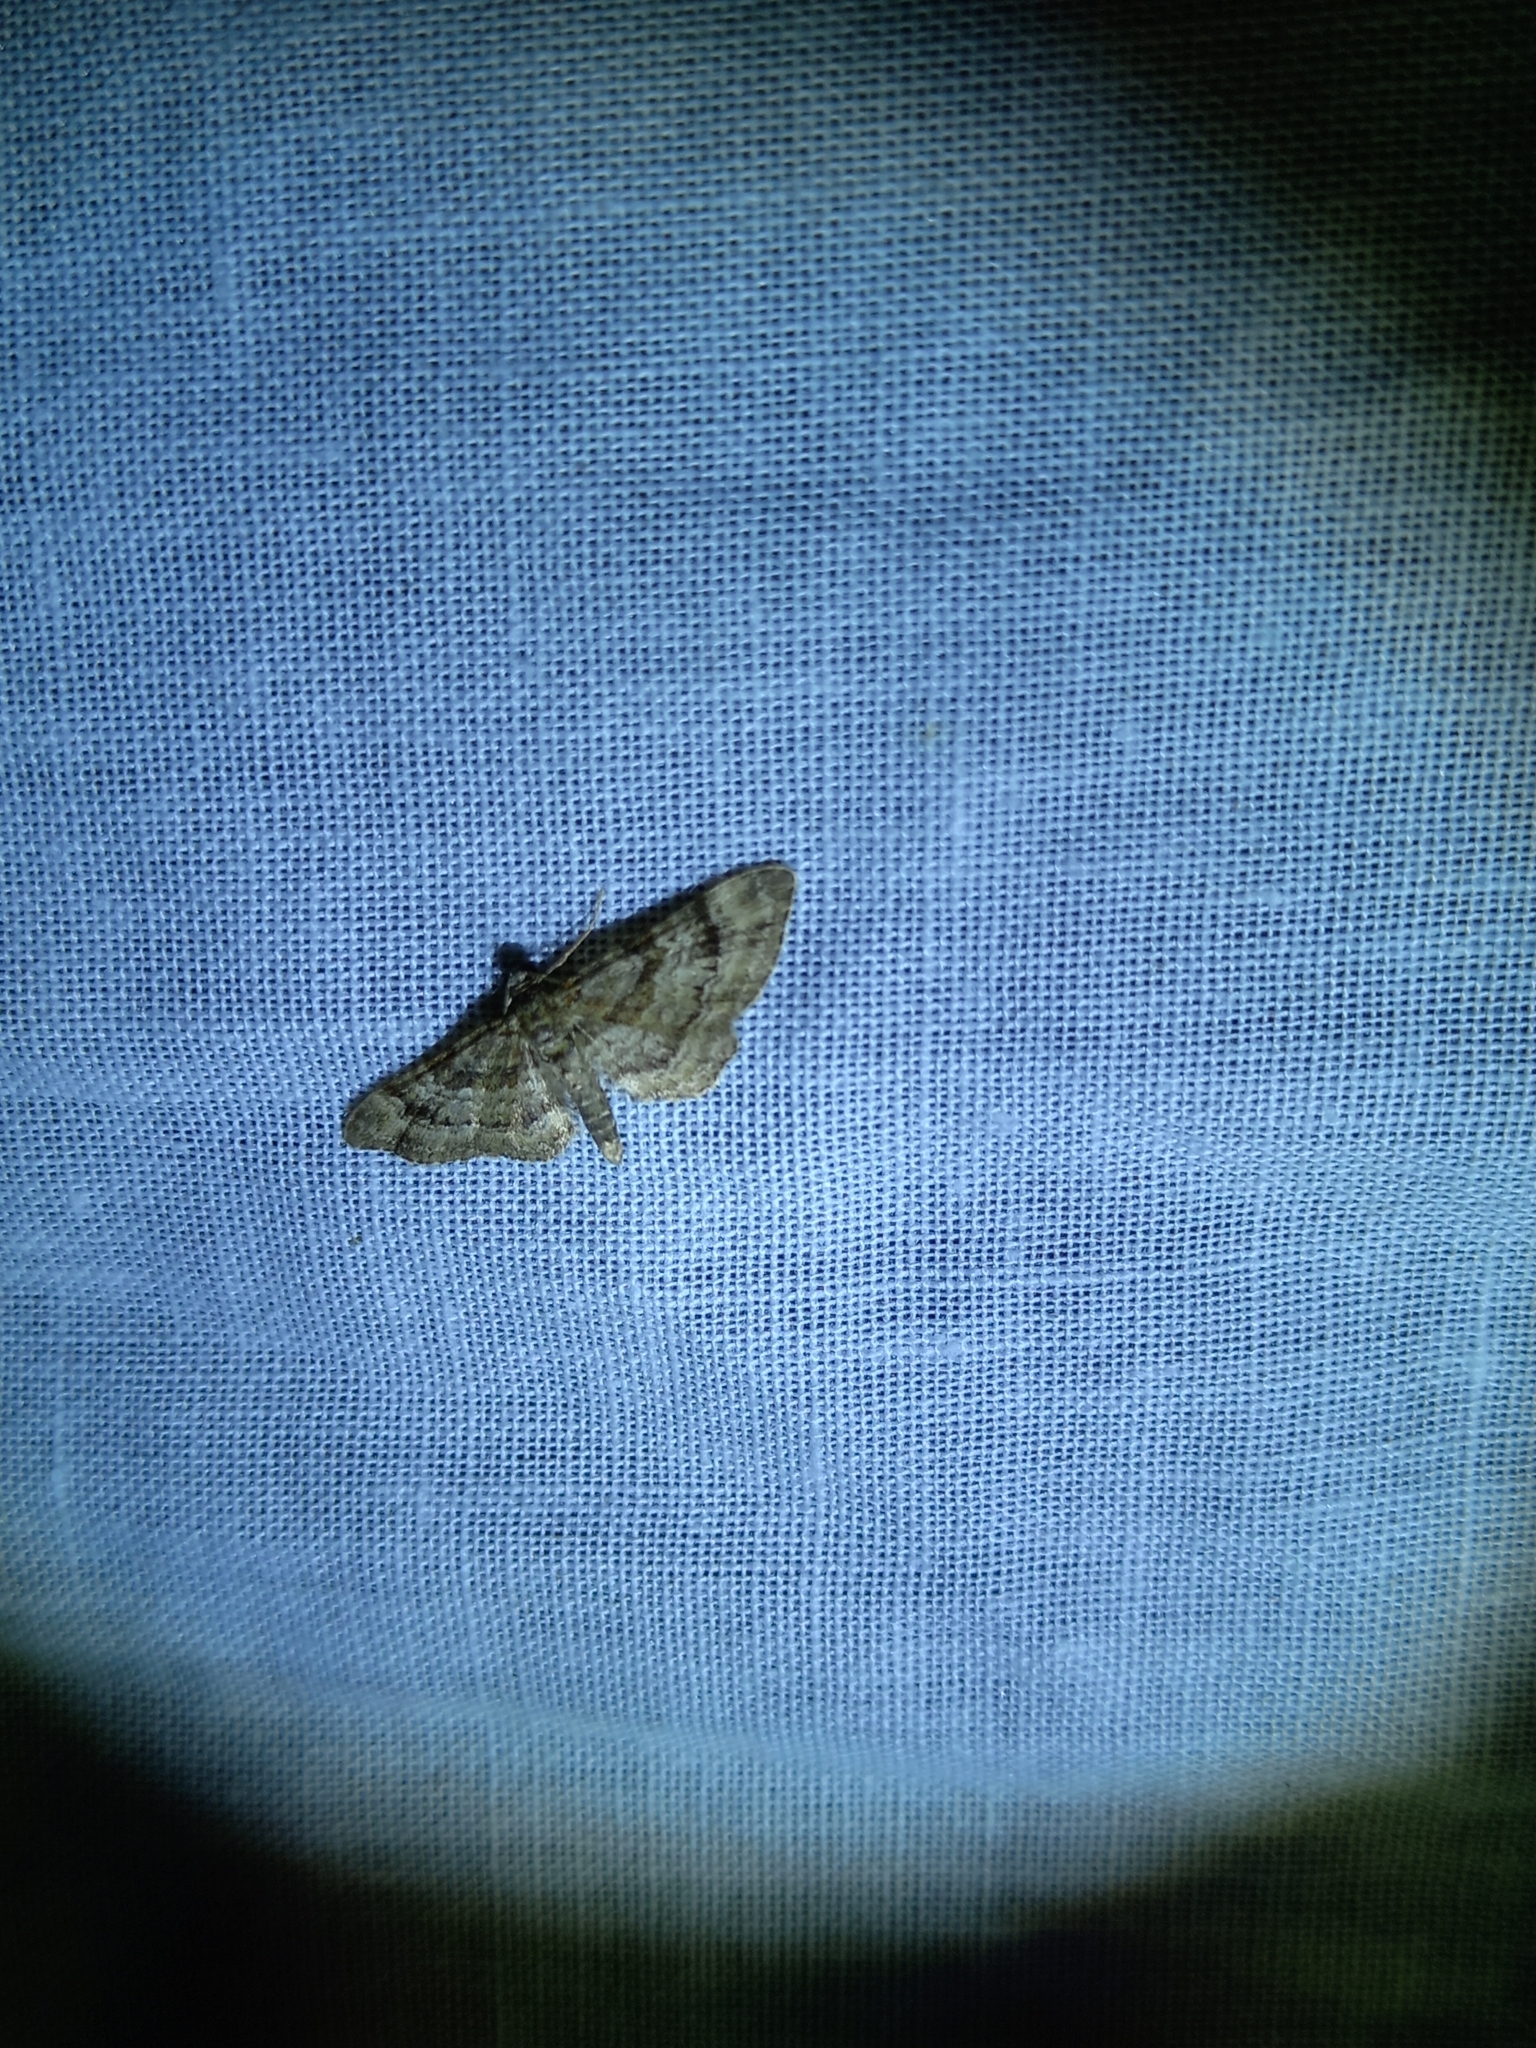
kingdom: Animalia
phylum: Arthropoda
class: Insecta
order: Lepidoptera
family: Geometridae
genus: Gymnoscelis
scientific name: Gymnoscelis rufifasciata
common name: Double-striped pug
